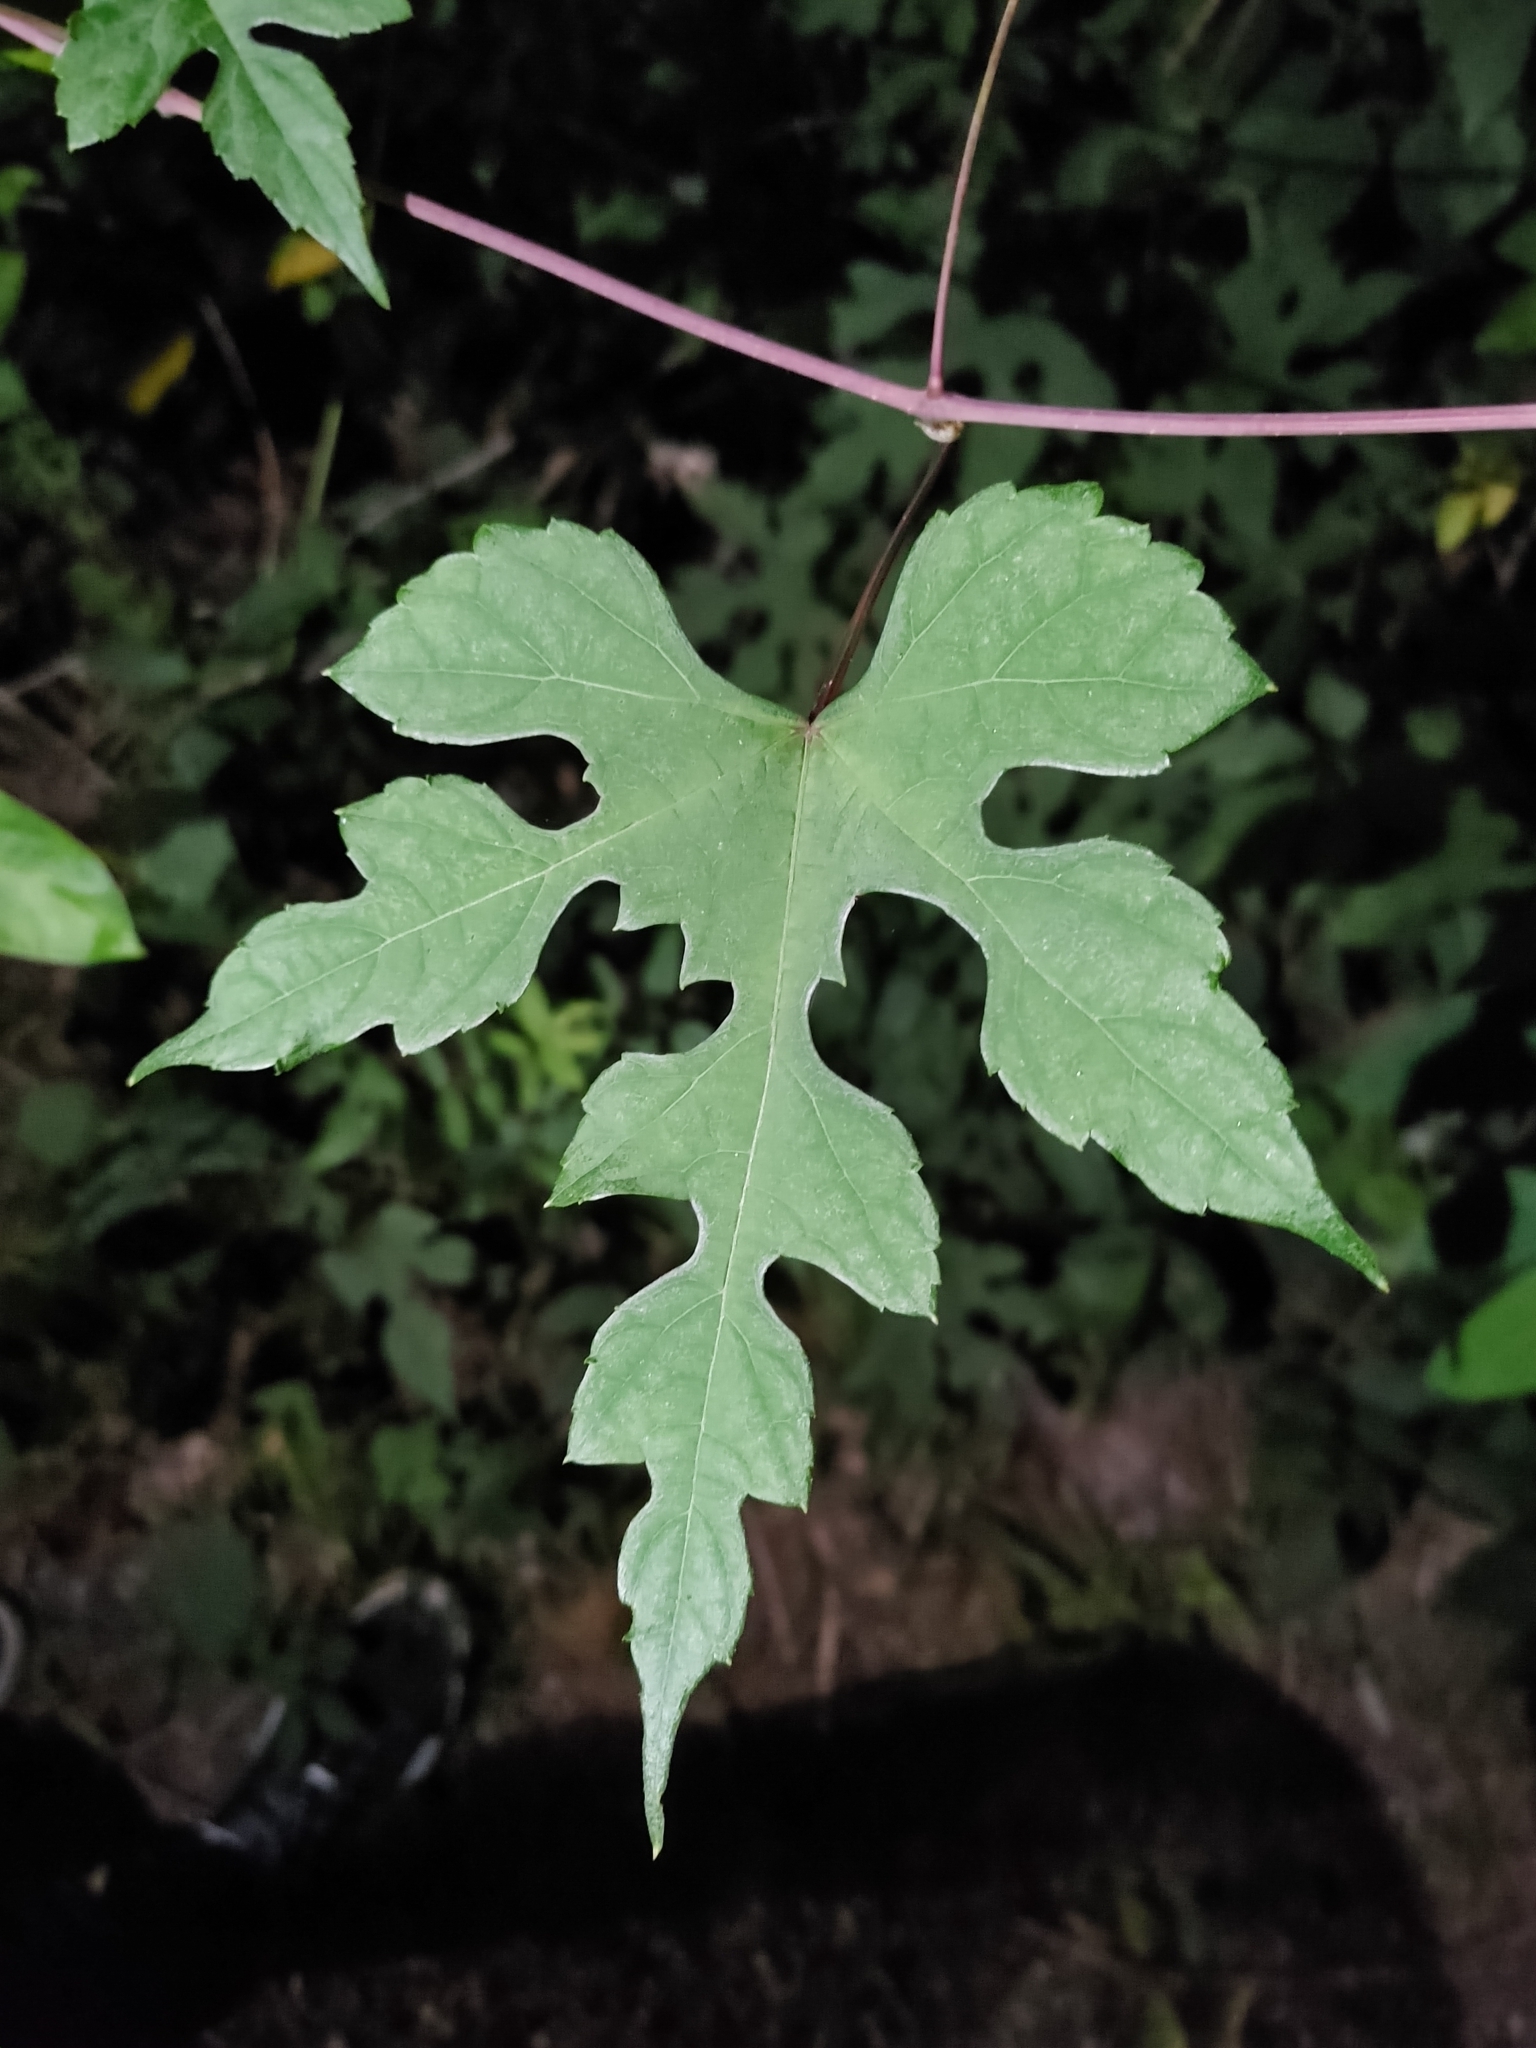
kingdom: Plantae
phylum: Tracheophyta
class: Magnoliopsida
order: Vitales
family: Vitaceae
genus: Ampelopsis
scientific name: Ampelopsis glandulosa
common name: Amur peppervine
